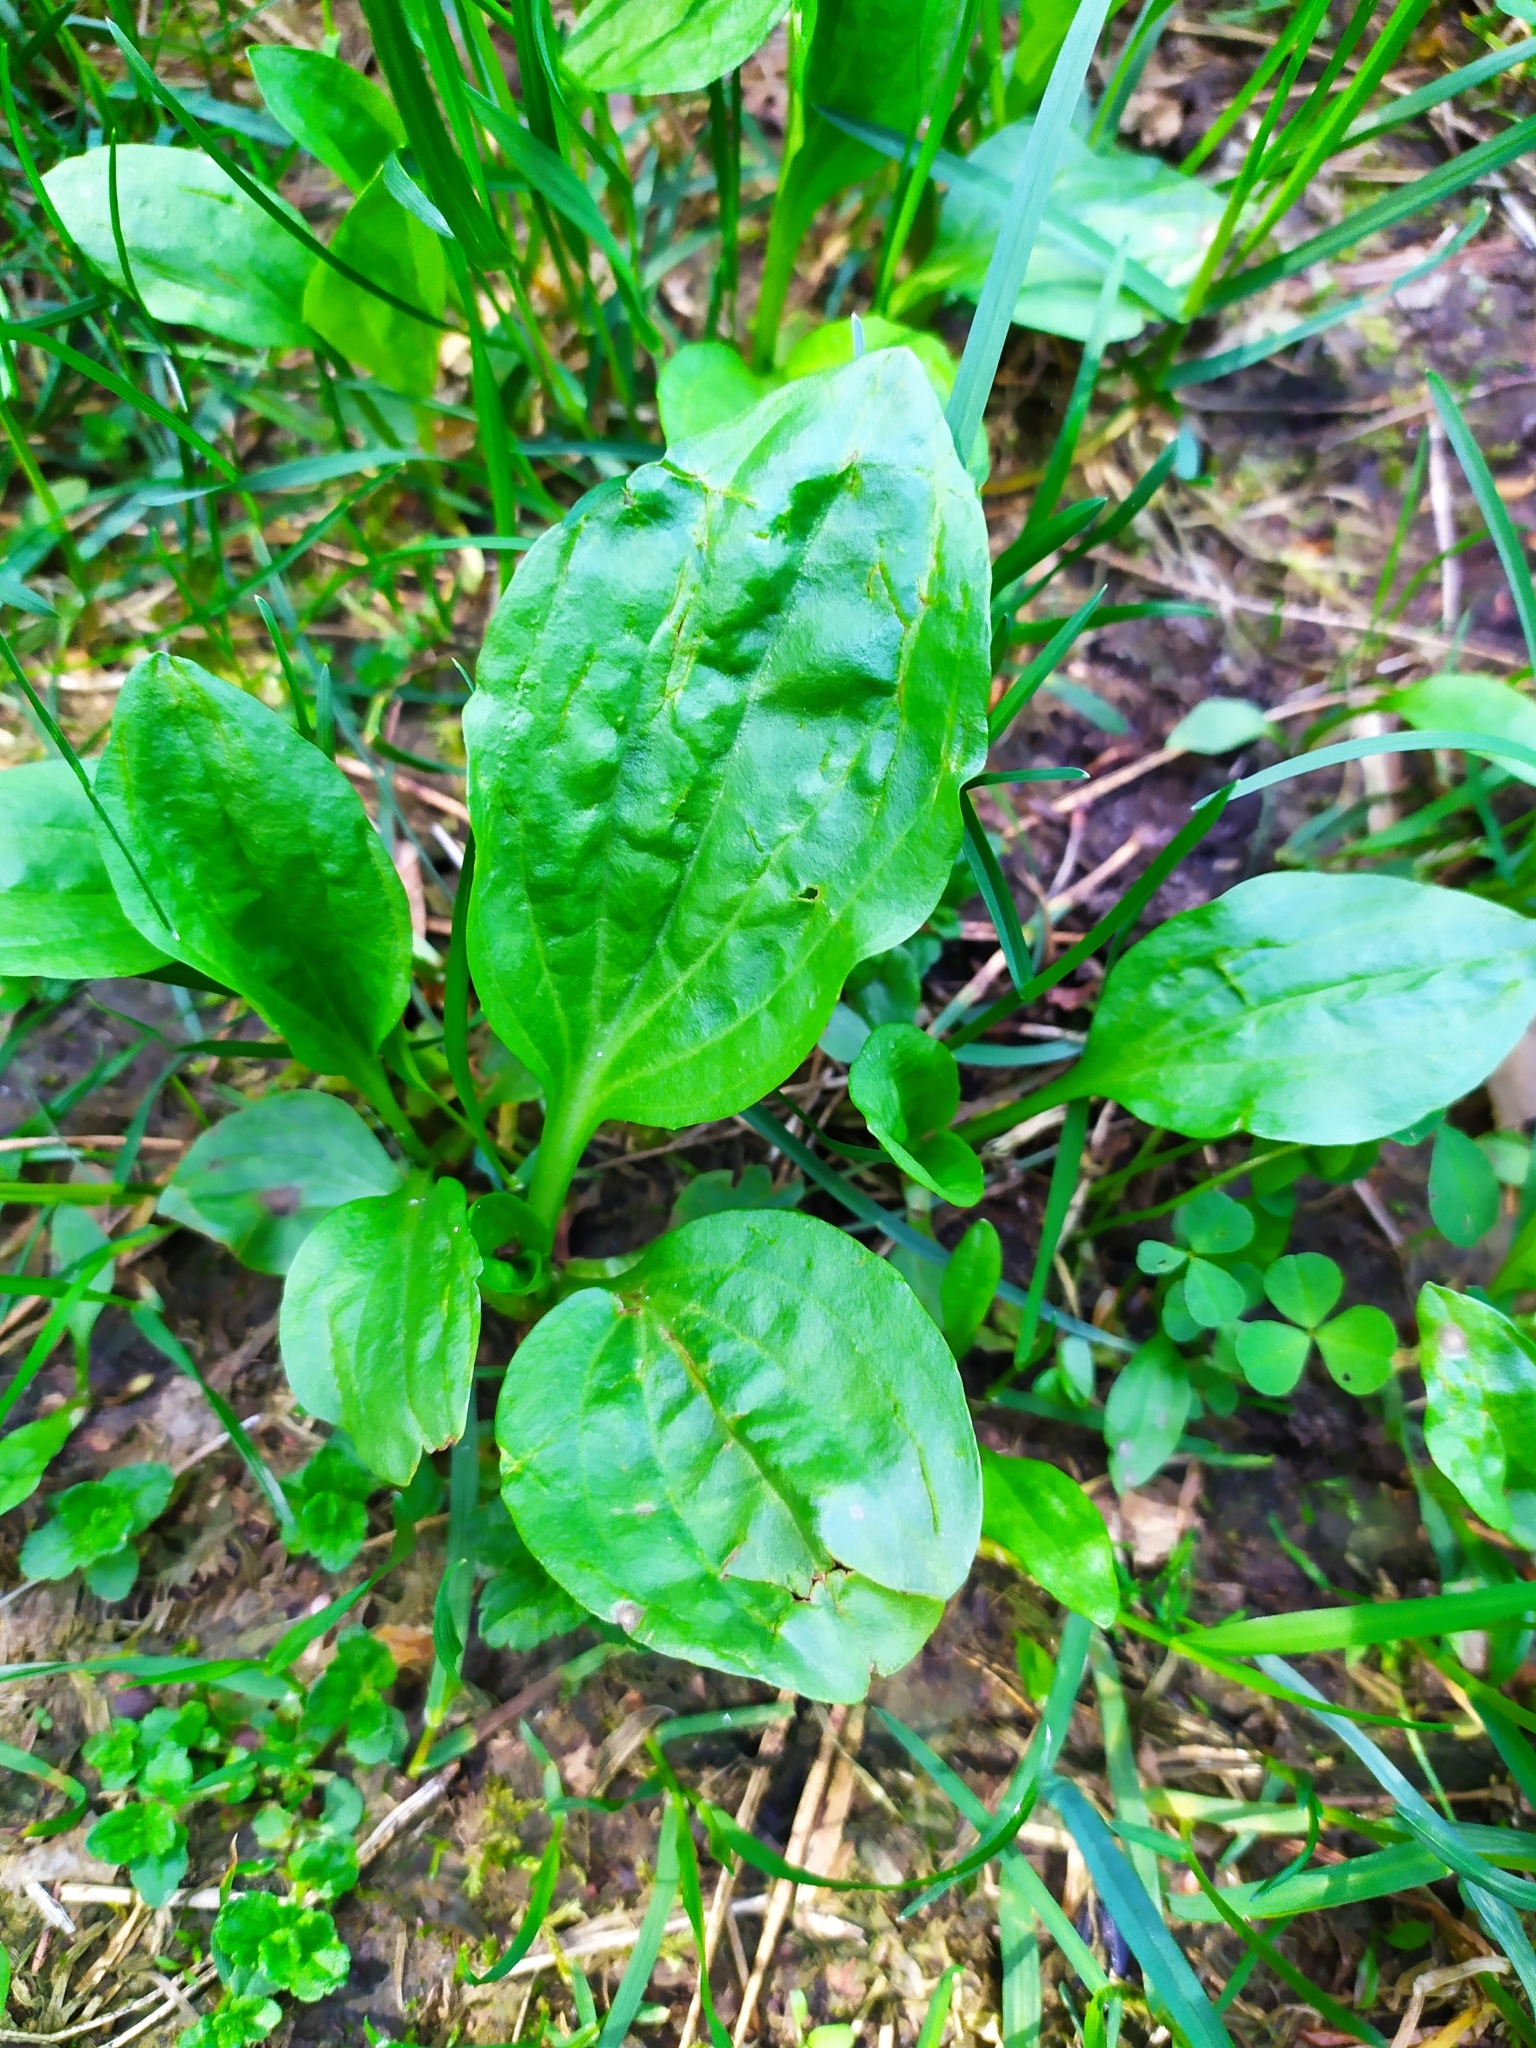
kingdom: Plantae
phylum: Tracheophyta
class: Magnoliopsida
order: Lamiales
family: Plantaginaceae
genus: Plantago
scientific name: Plantago major
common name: Common plantain
